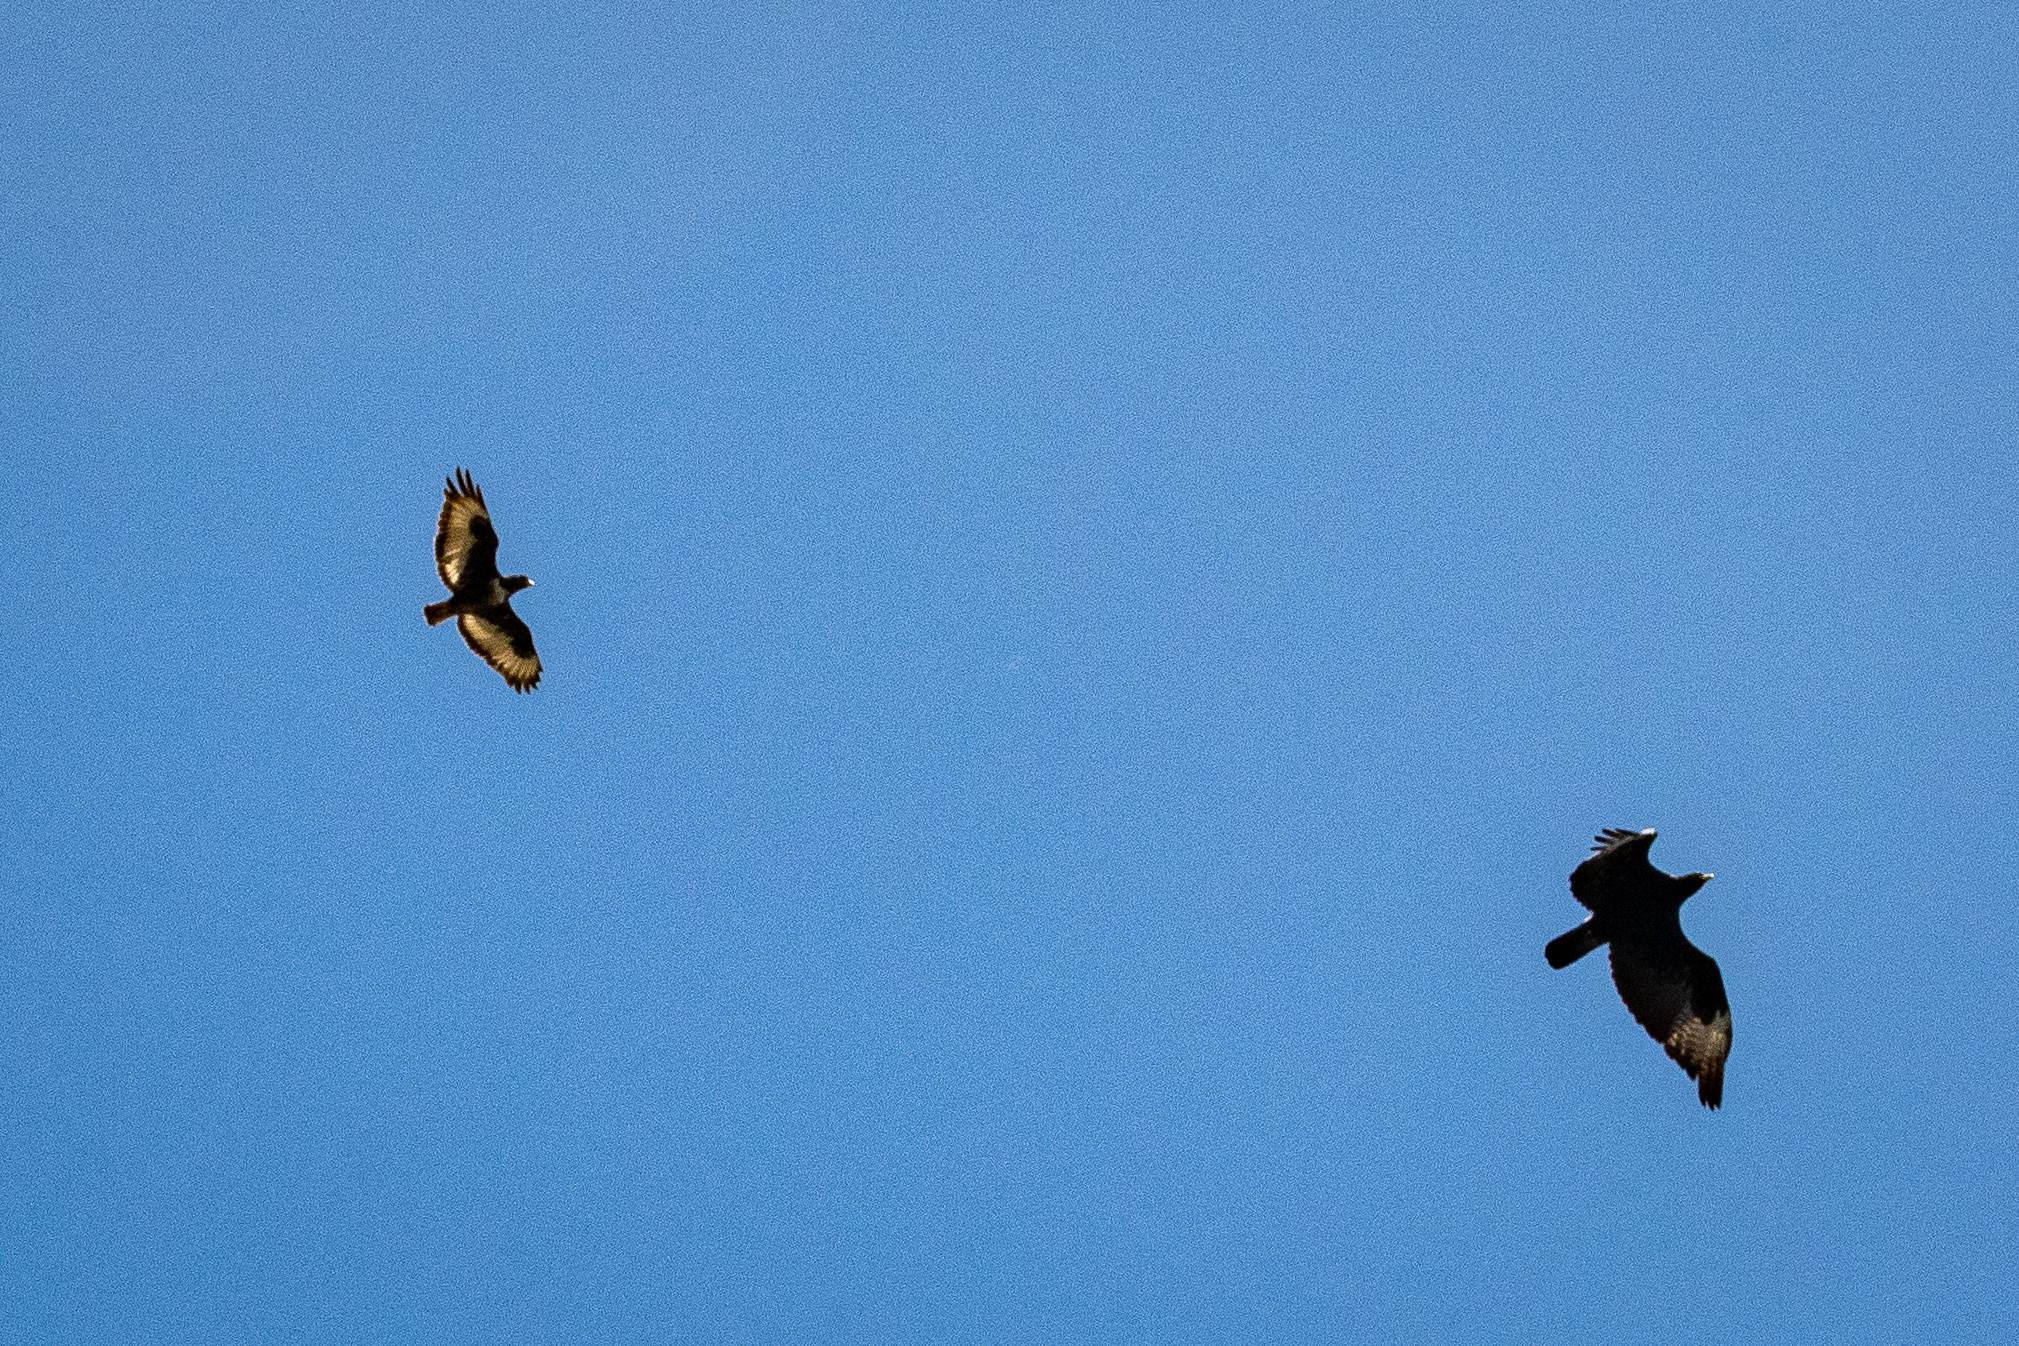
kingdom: Animalia
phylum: Chordata
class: Aves
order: Accipitriformes
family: Accipitridae
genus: Aquila
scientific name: Aquila verreauxii
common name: Verreaux's eagle
